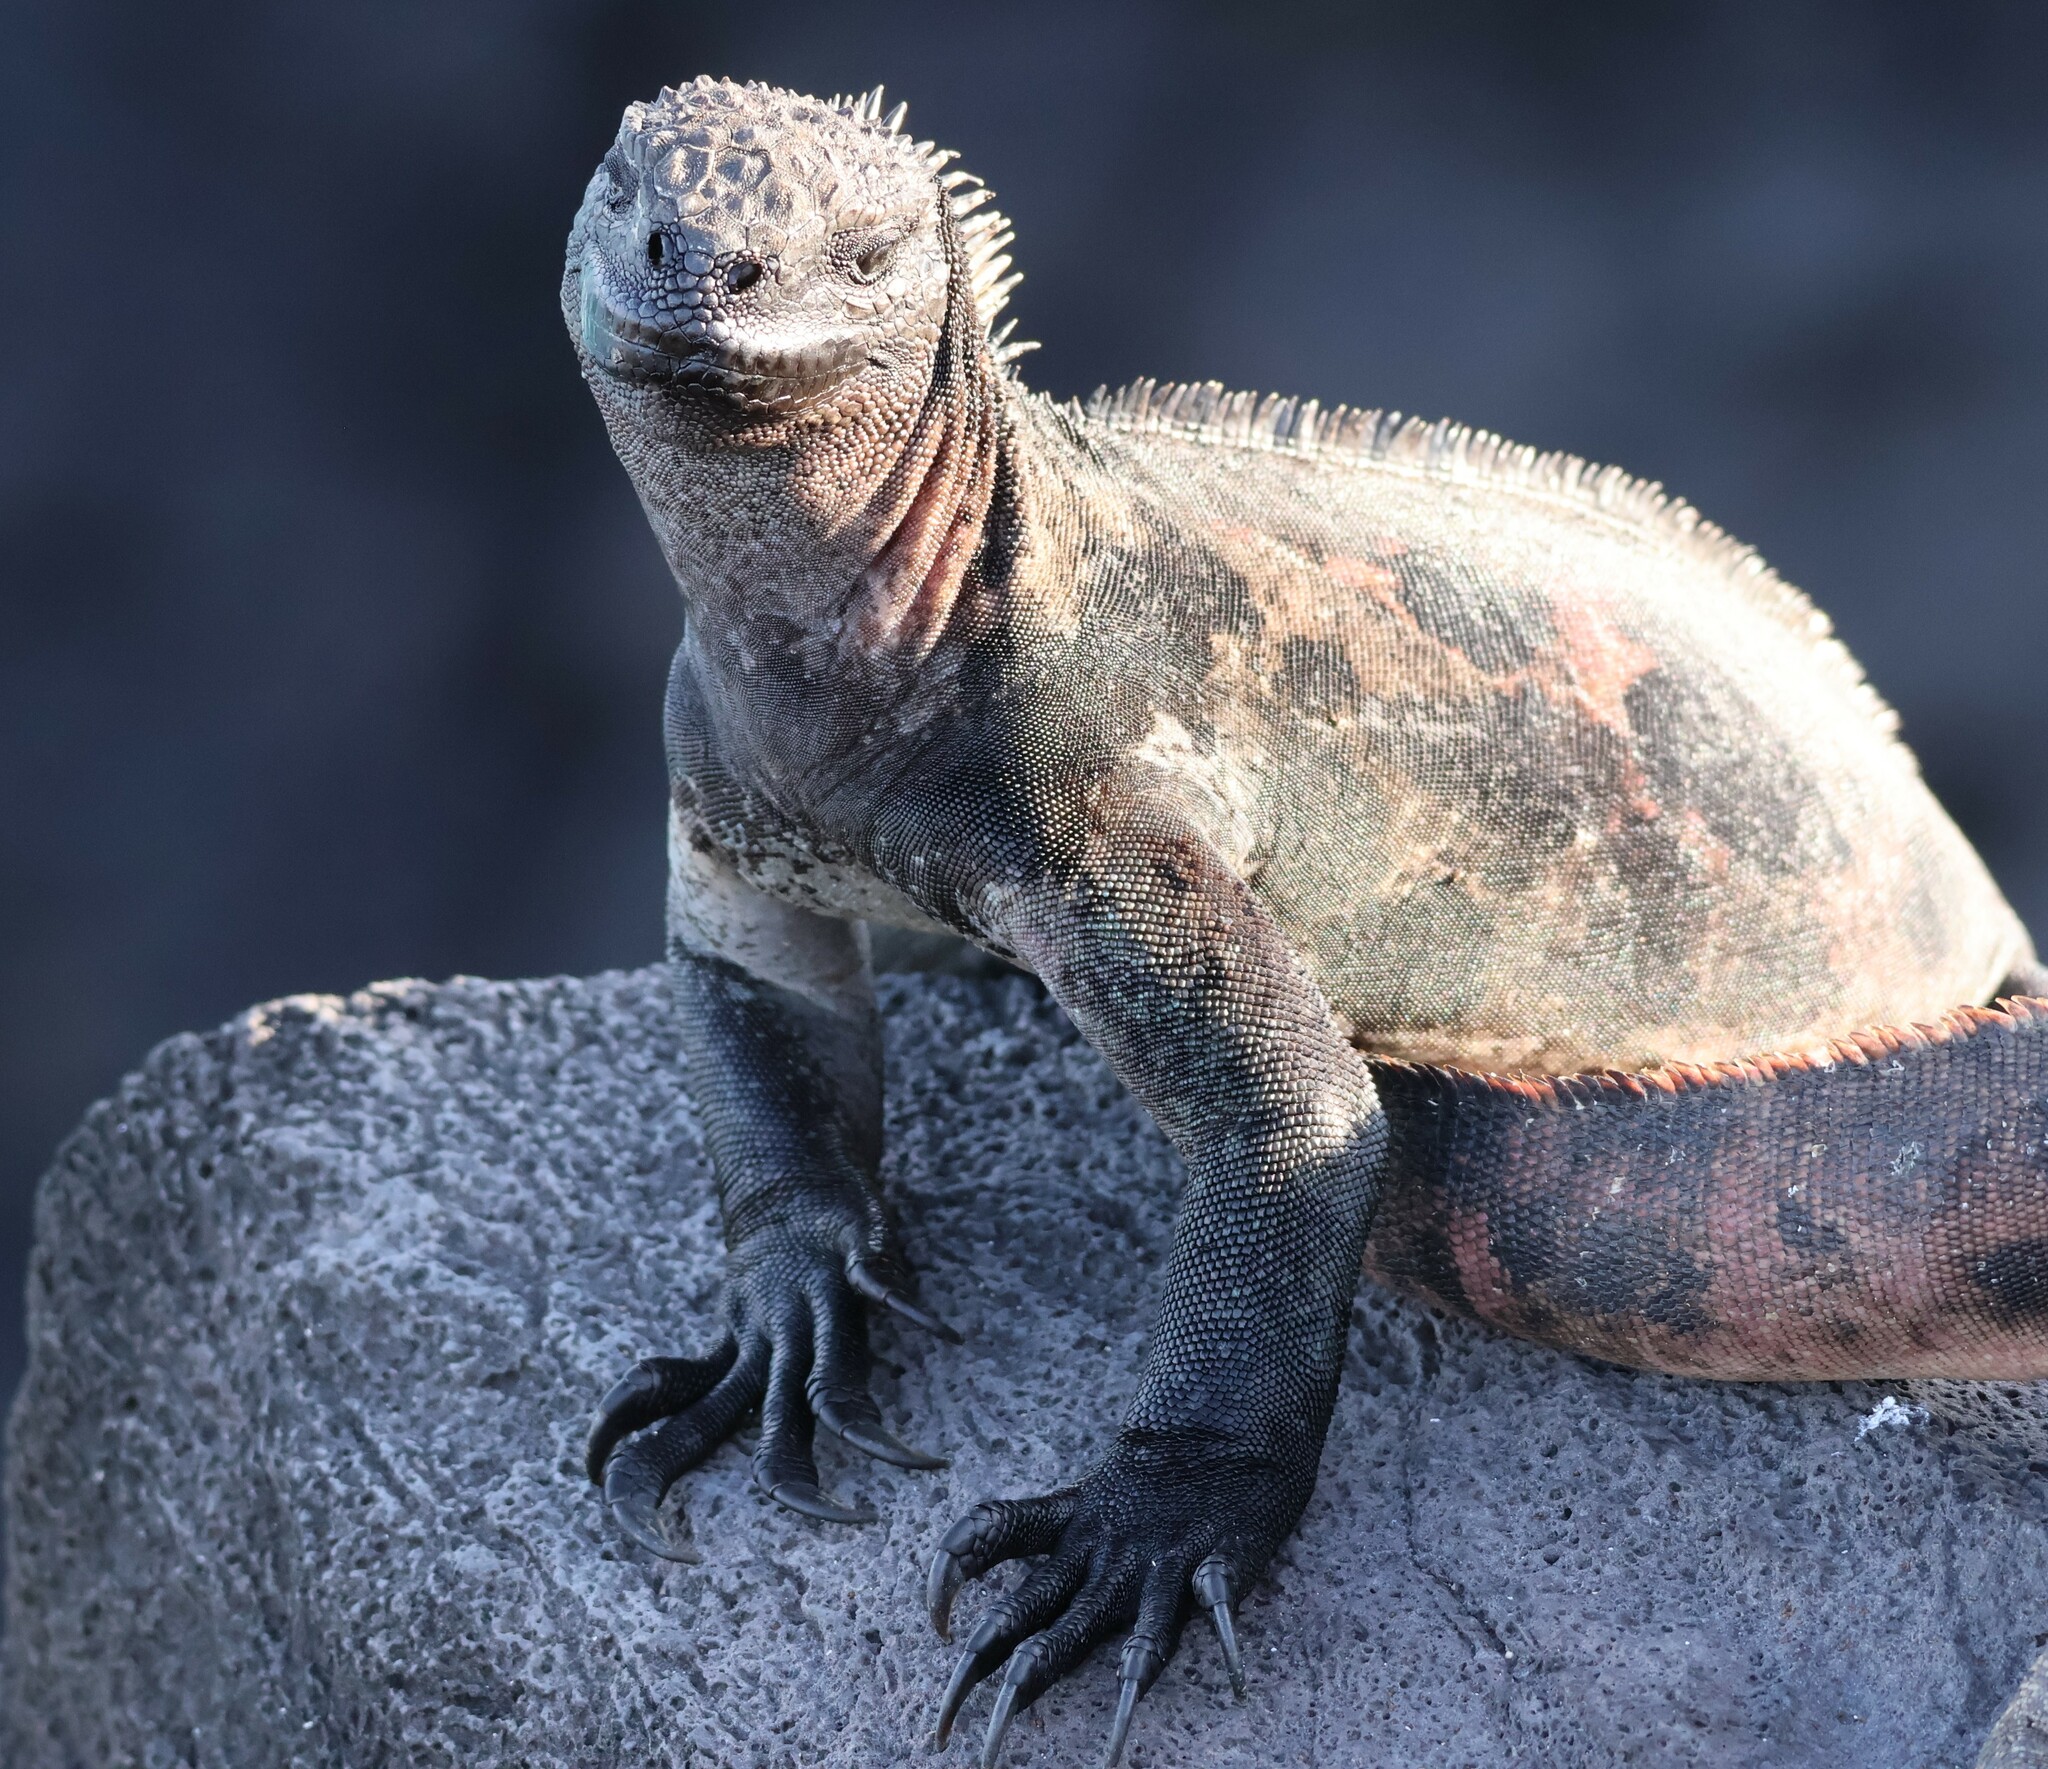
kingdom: Animalia
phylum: Chordata
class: Squamata
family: Iguanidae
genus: Amblyrhynchus
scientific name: Amblyrhynchus cristatus
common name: Marine iguana
